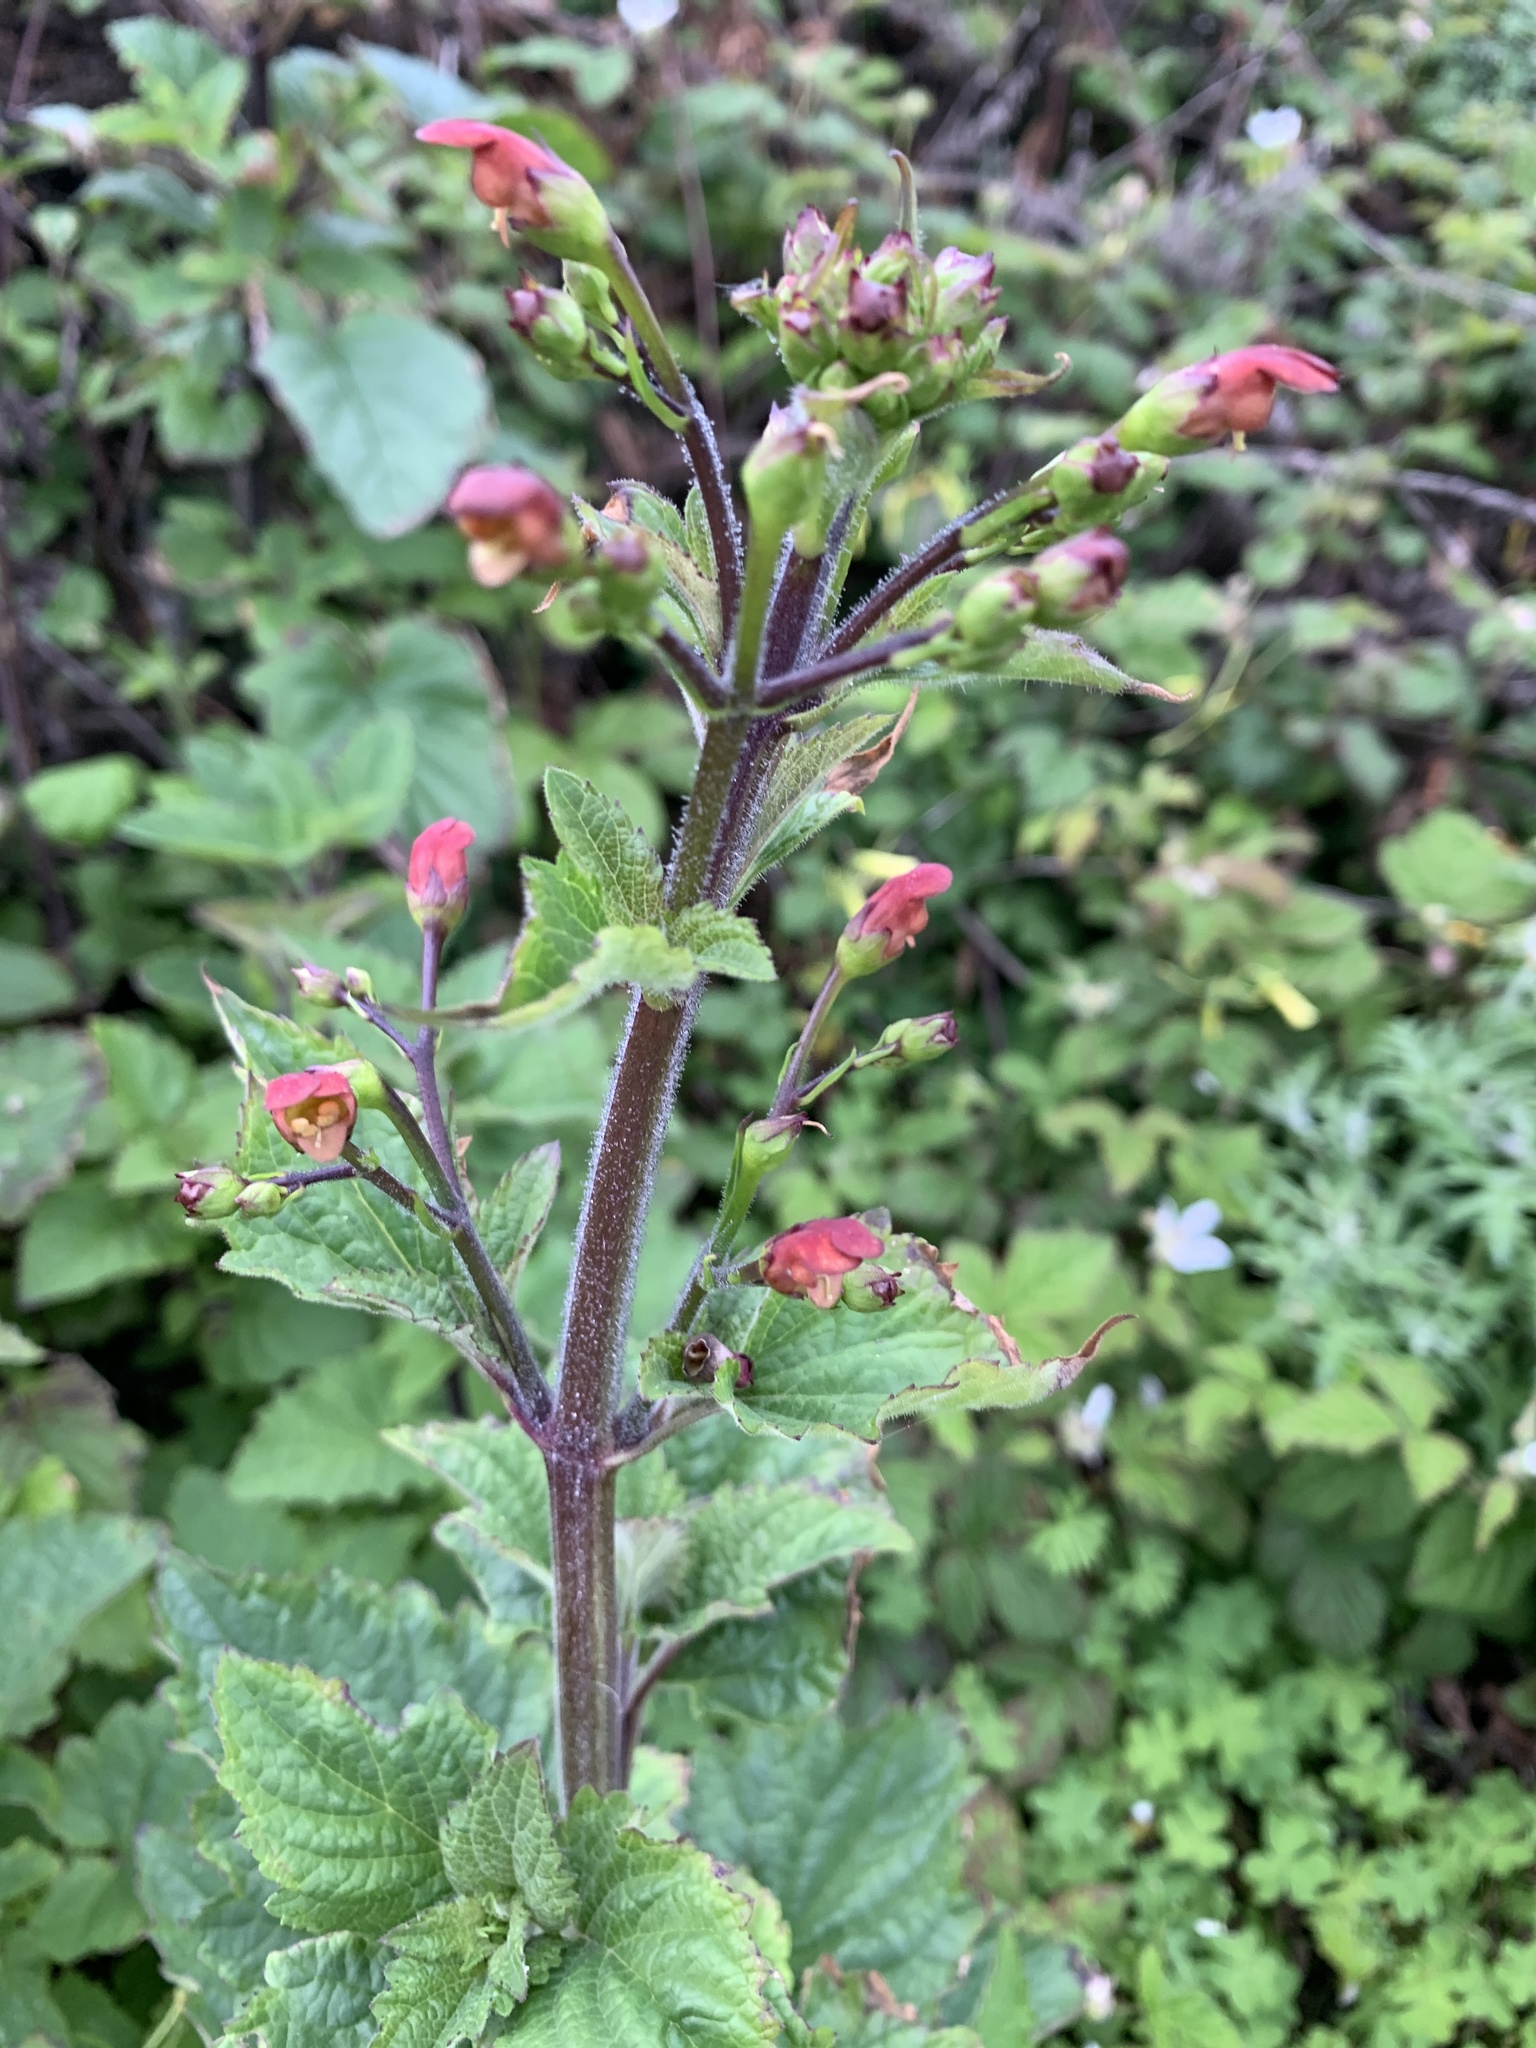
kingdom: Plantae
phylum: Tracheophyta
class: Magnoliopsida
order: Lamiales
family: Scrophulariaceae
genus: Scrophularia
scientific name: Scrophularia californica
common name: California figwort
